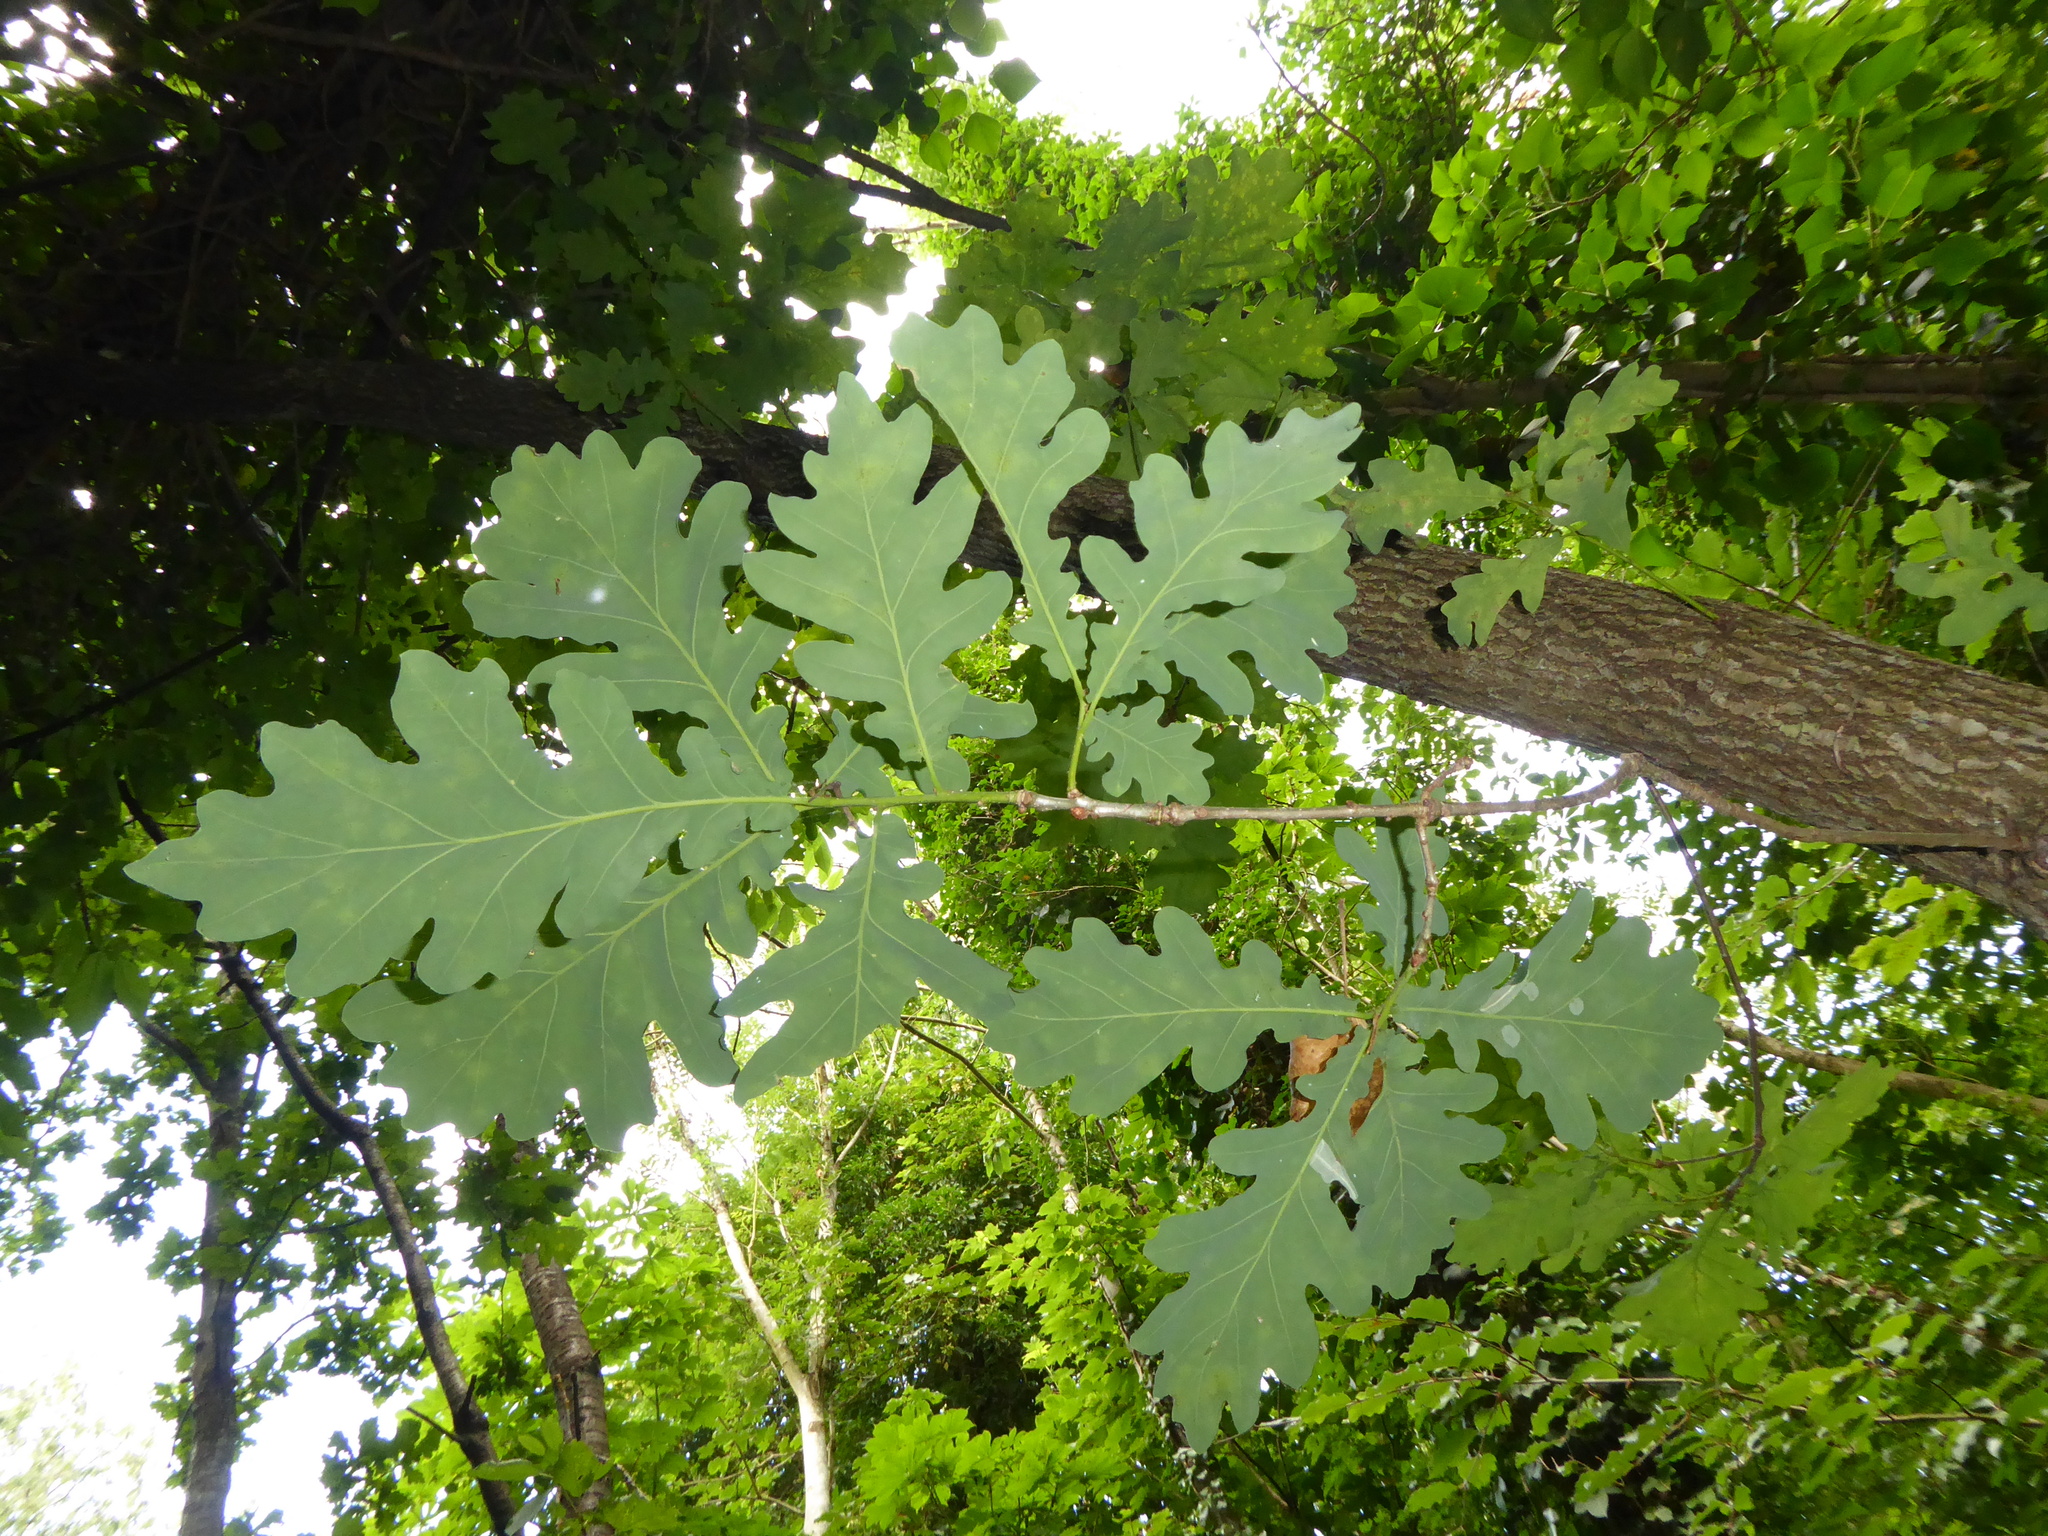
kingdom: Plantae
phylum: Tracheophyta
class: Magnoliopsida
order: Fagales
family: Fagaceae
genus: Quercus
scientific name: Quercus robur
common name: Pedunculate oak
